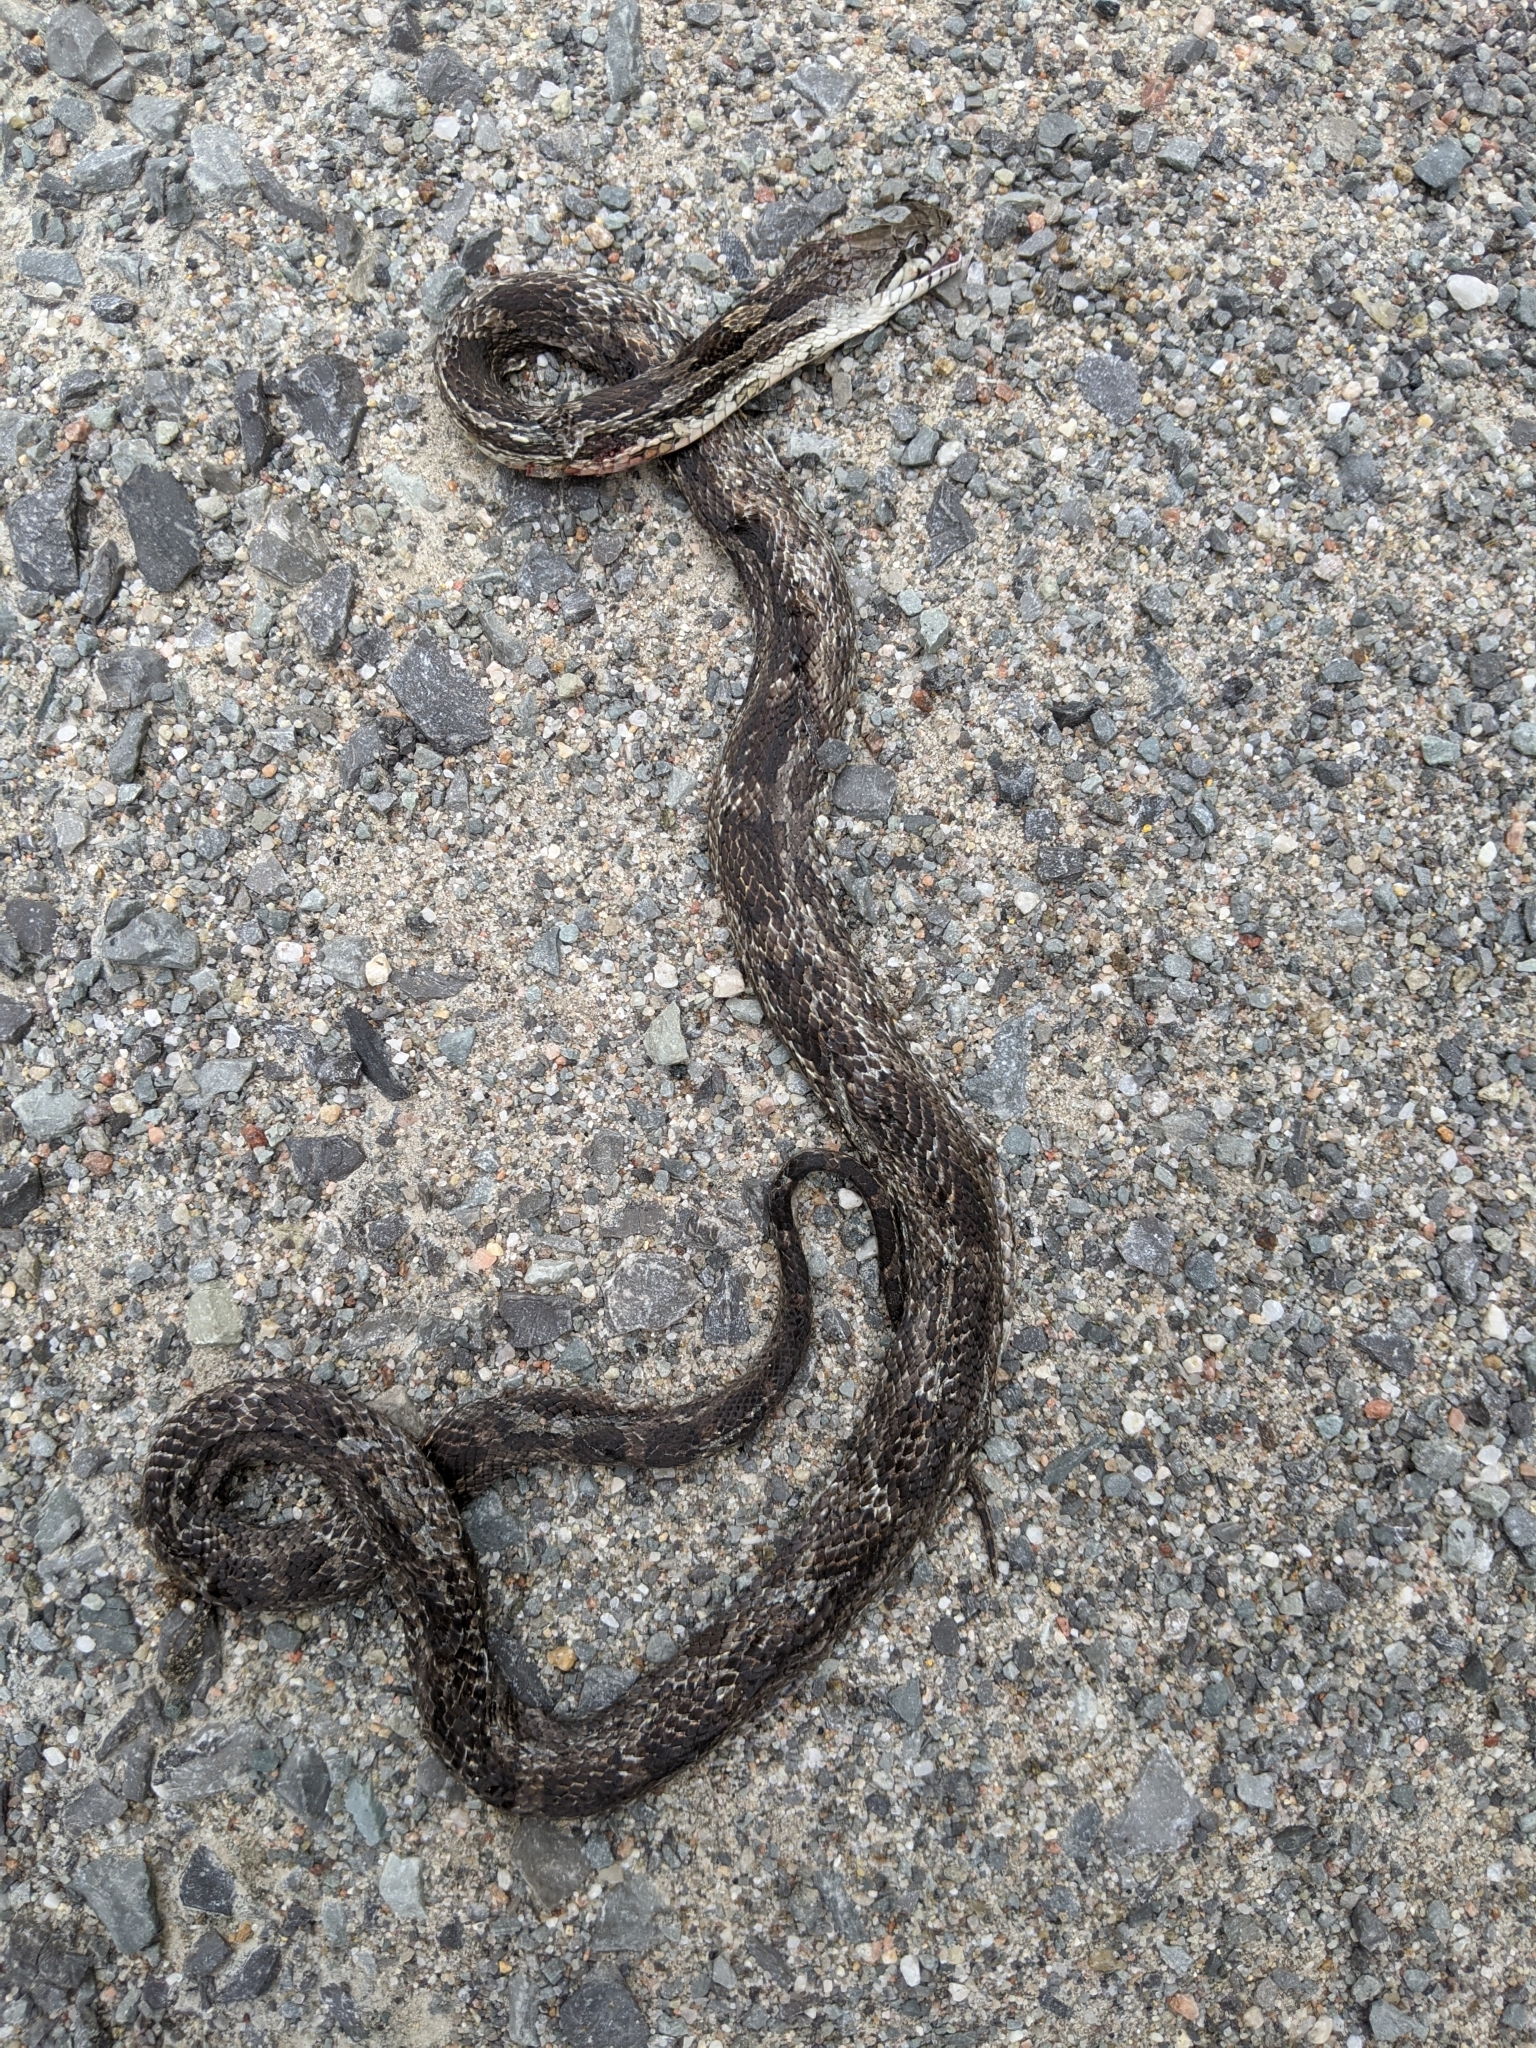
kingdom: Animalia
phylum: Chordata
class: Squamata
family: Colubridae
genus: Pantherophis
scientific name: Pantherophis spiloides
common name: Gray rat snake
